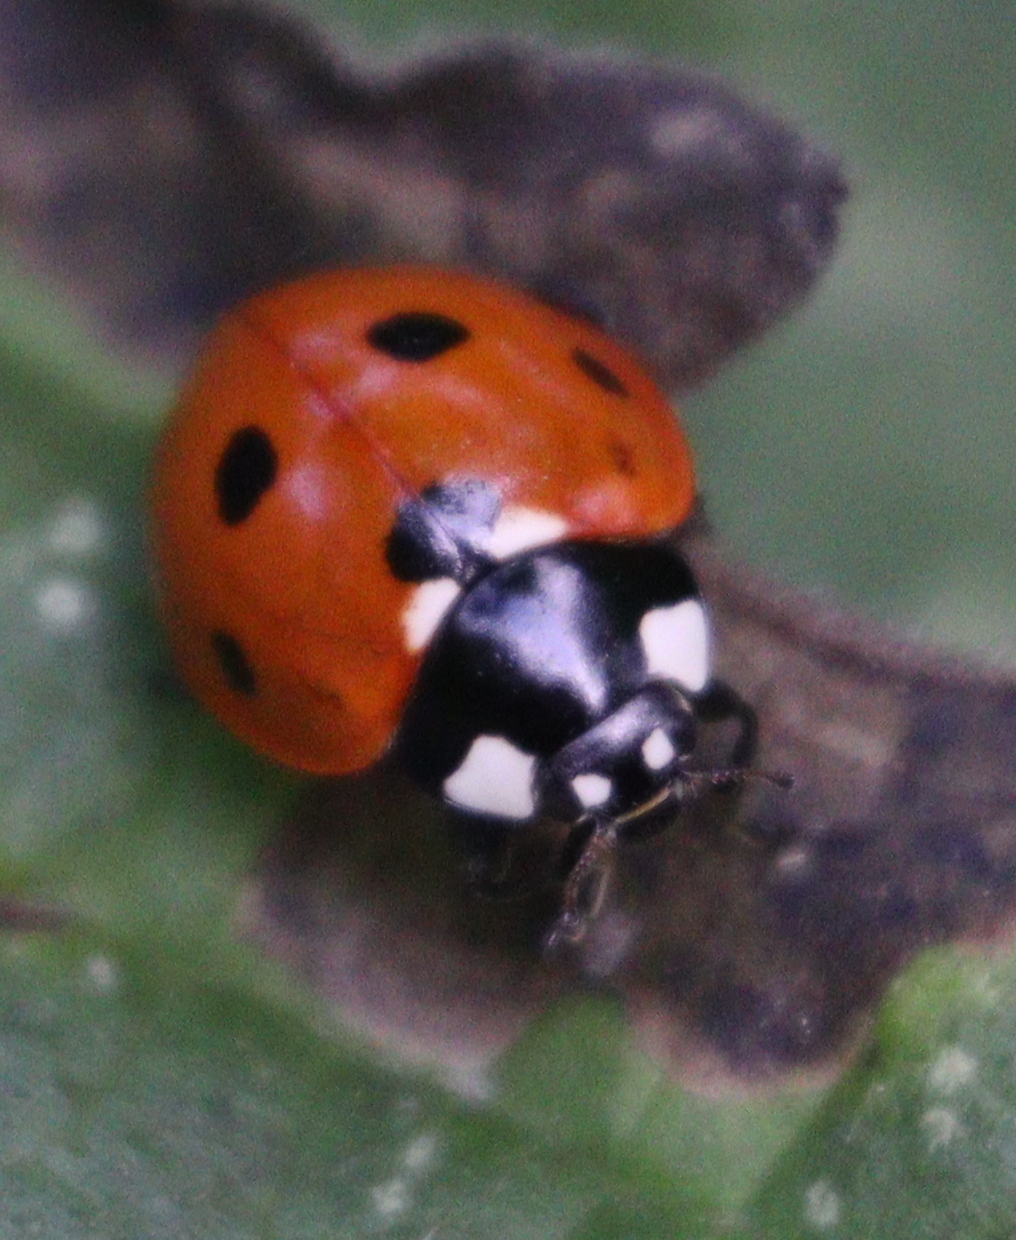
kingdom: Animalia
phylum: Arthropoda
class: Insecta
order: Coleoptera
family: Coccinellidae
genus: Coccinella
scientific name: Coccinella septempunctata
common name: Sevenspotted lady beetle
